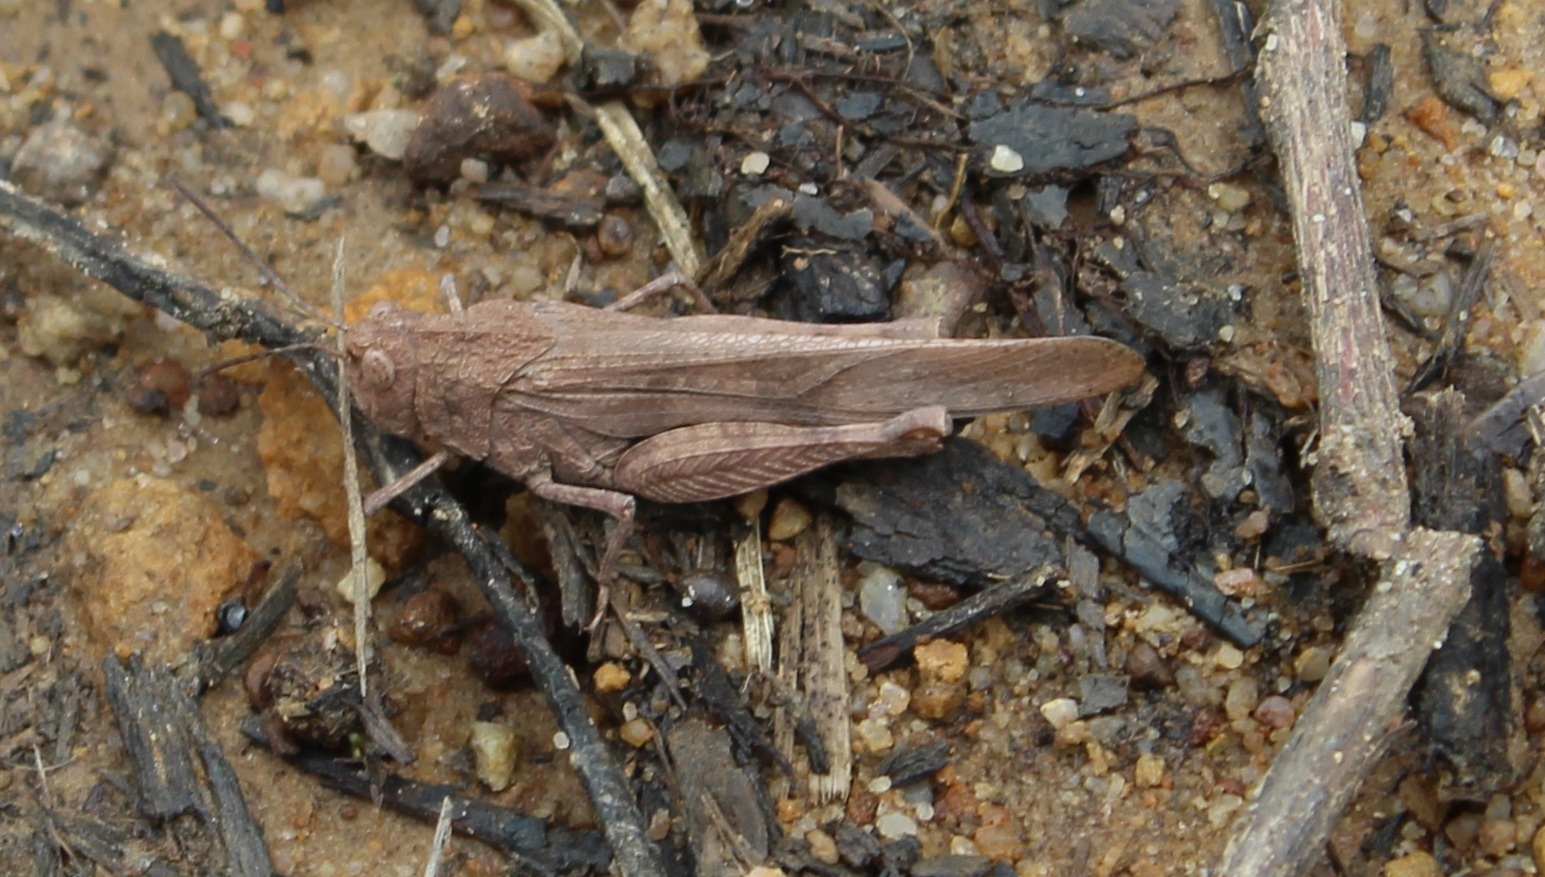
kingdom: Animalia
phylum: Arthropoda
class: Insecta
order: Orthoptera
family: Acrididae
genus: Lactista
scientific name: Lactista stramineus
